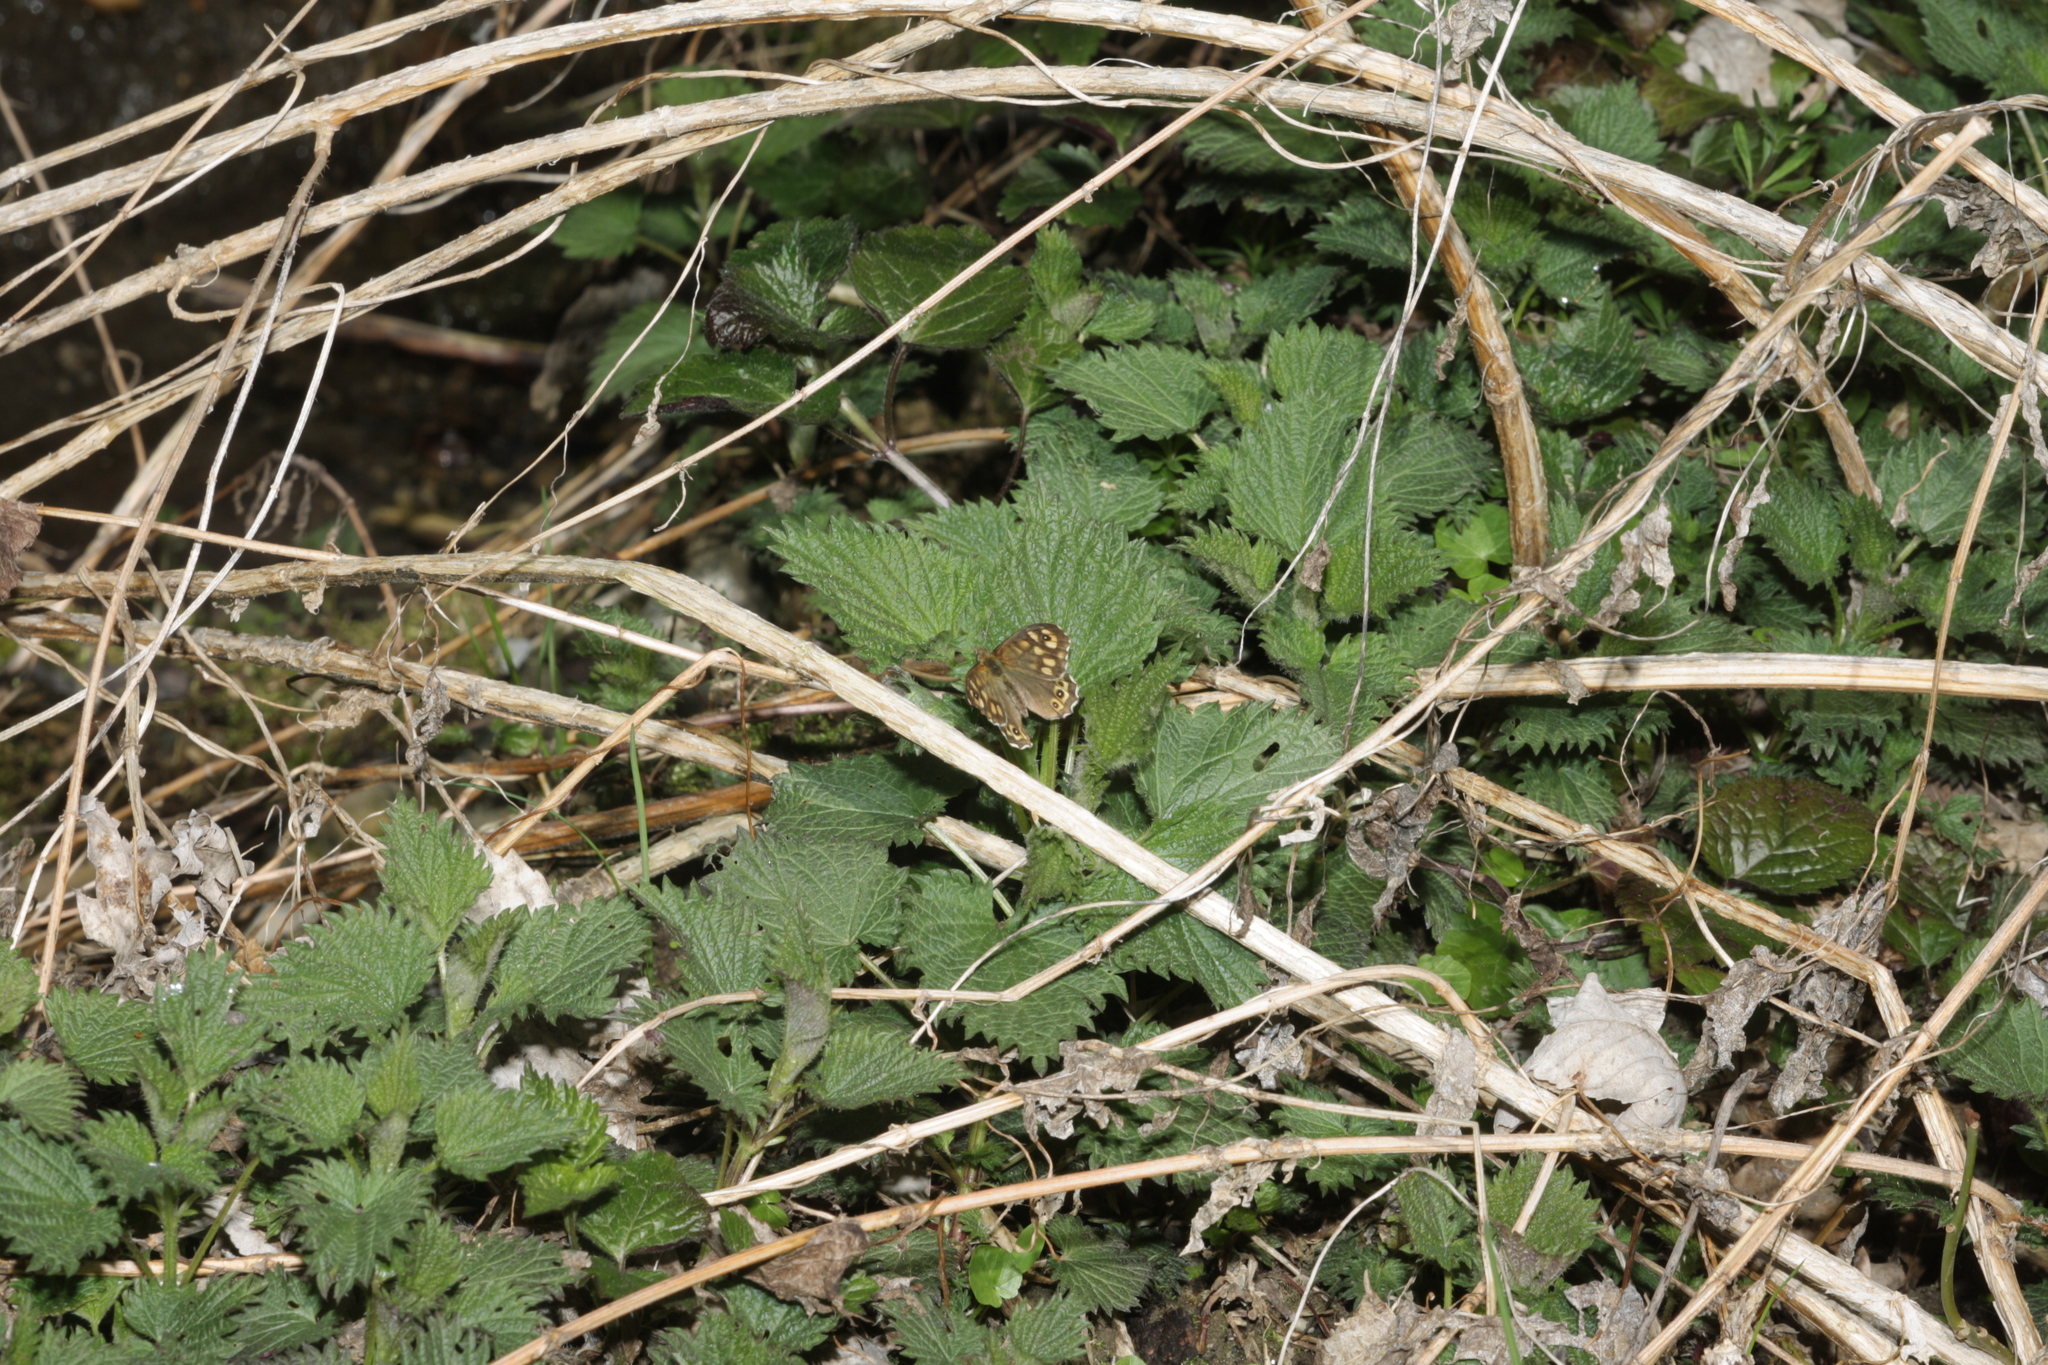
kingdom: Animalia
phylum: Arthropoda
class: Insecta
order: Lepidoptera
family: Nymphalidae
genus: Pararge
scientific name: Pararge aegeria
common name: Speckled wood
